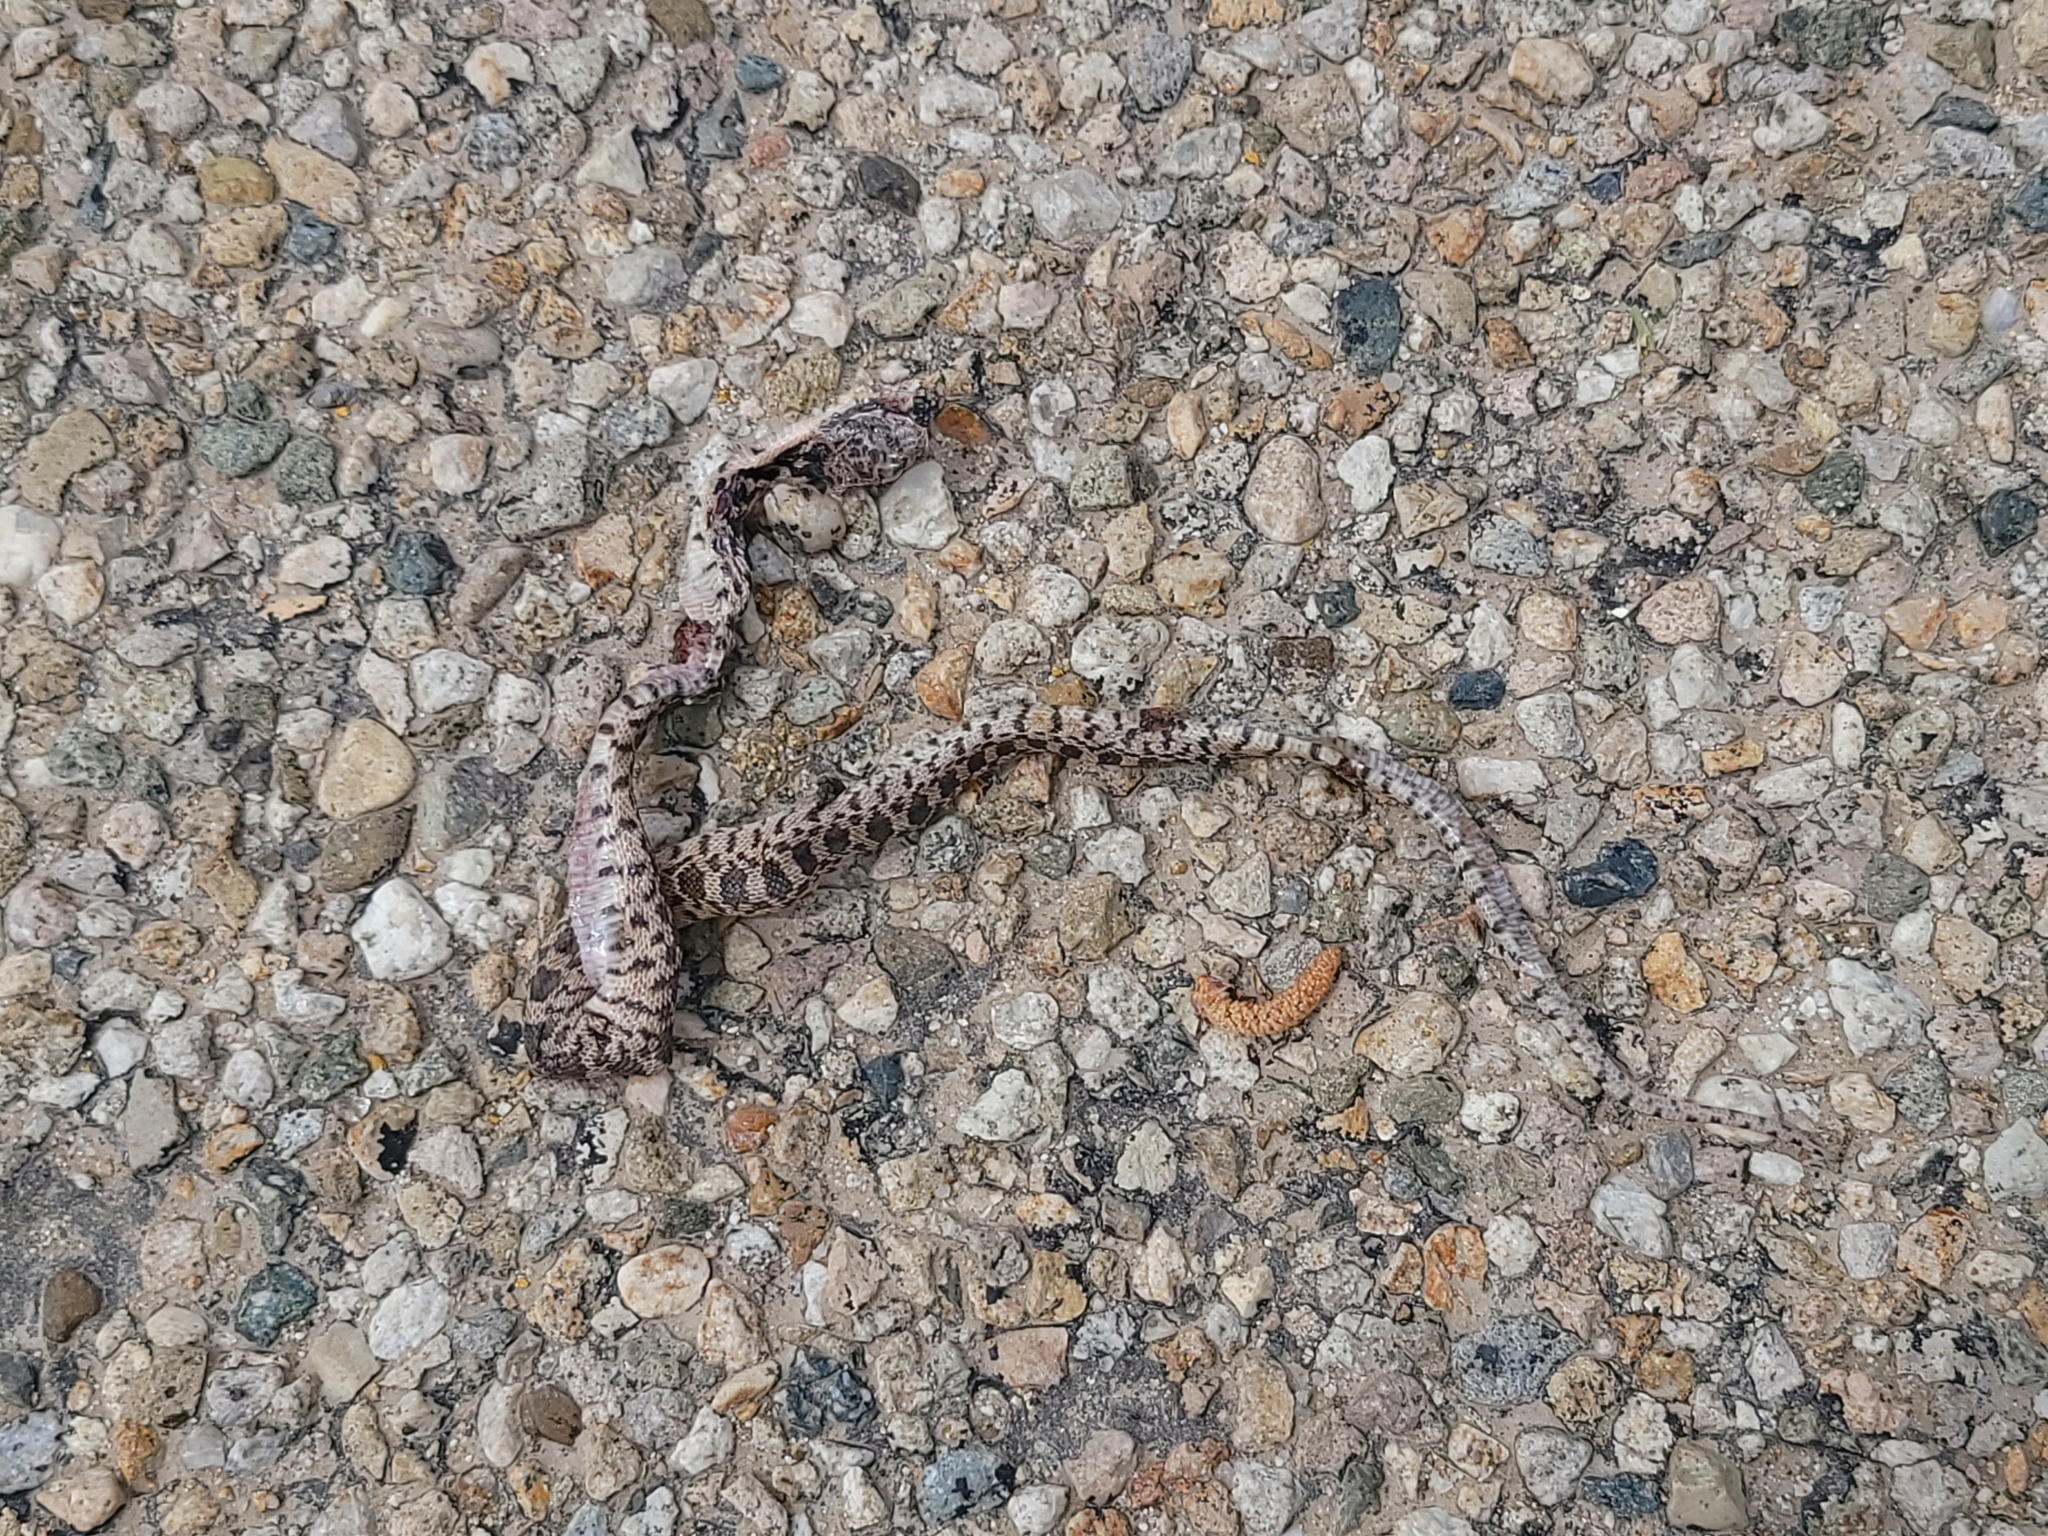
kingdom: Animalia
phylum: Chordata
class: Squamata
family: Colubridae
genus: Pituophis
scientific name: Pituophis catenifer
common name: Gopher snake
